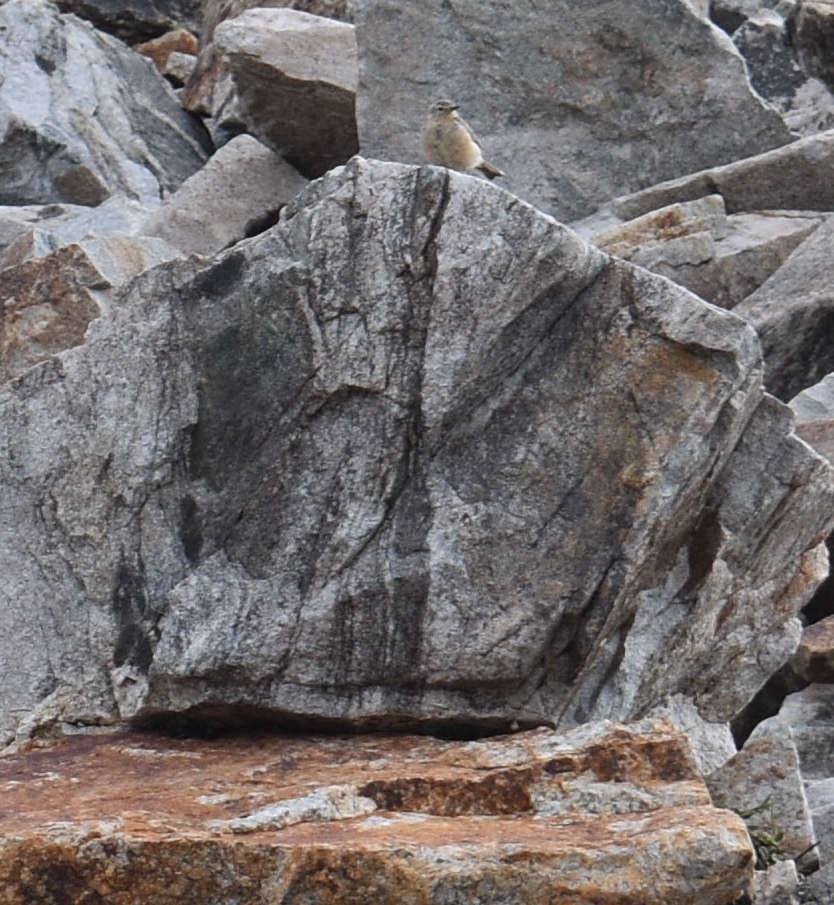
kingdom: Animalia
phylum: Chordata
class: Aves
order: Passeriformes
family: Motacillidae
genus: Anthus
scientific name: Anthus rubescens
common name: Buff-bellied pipit
